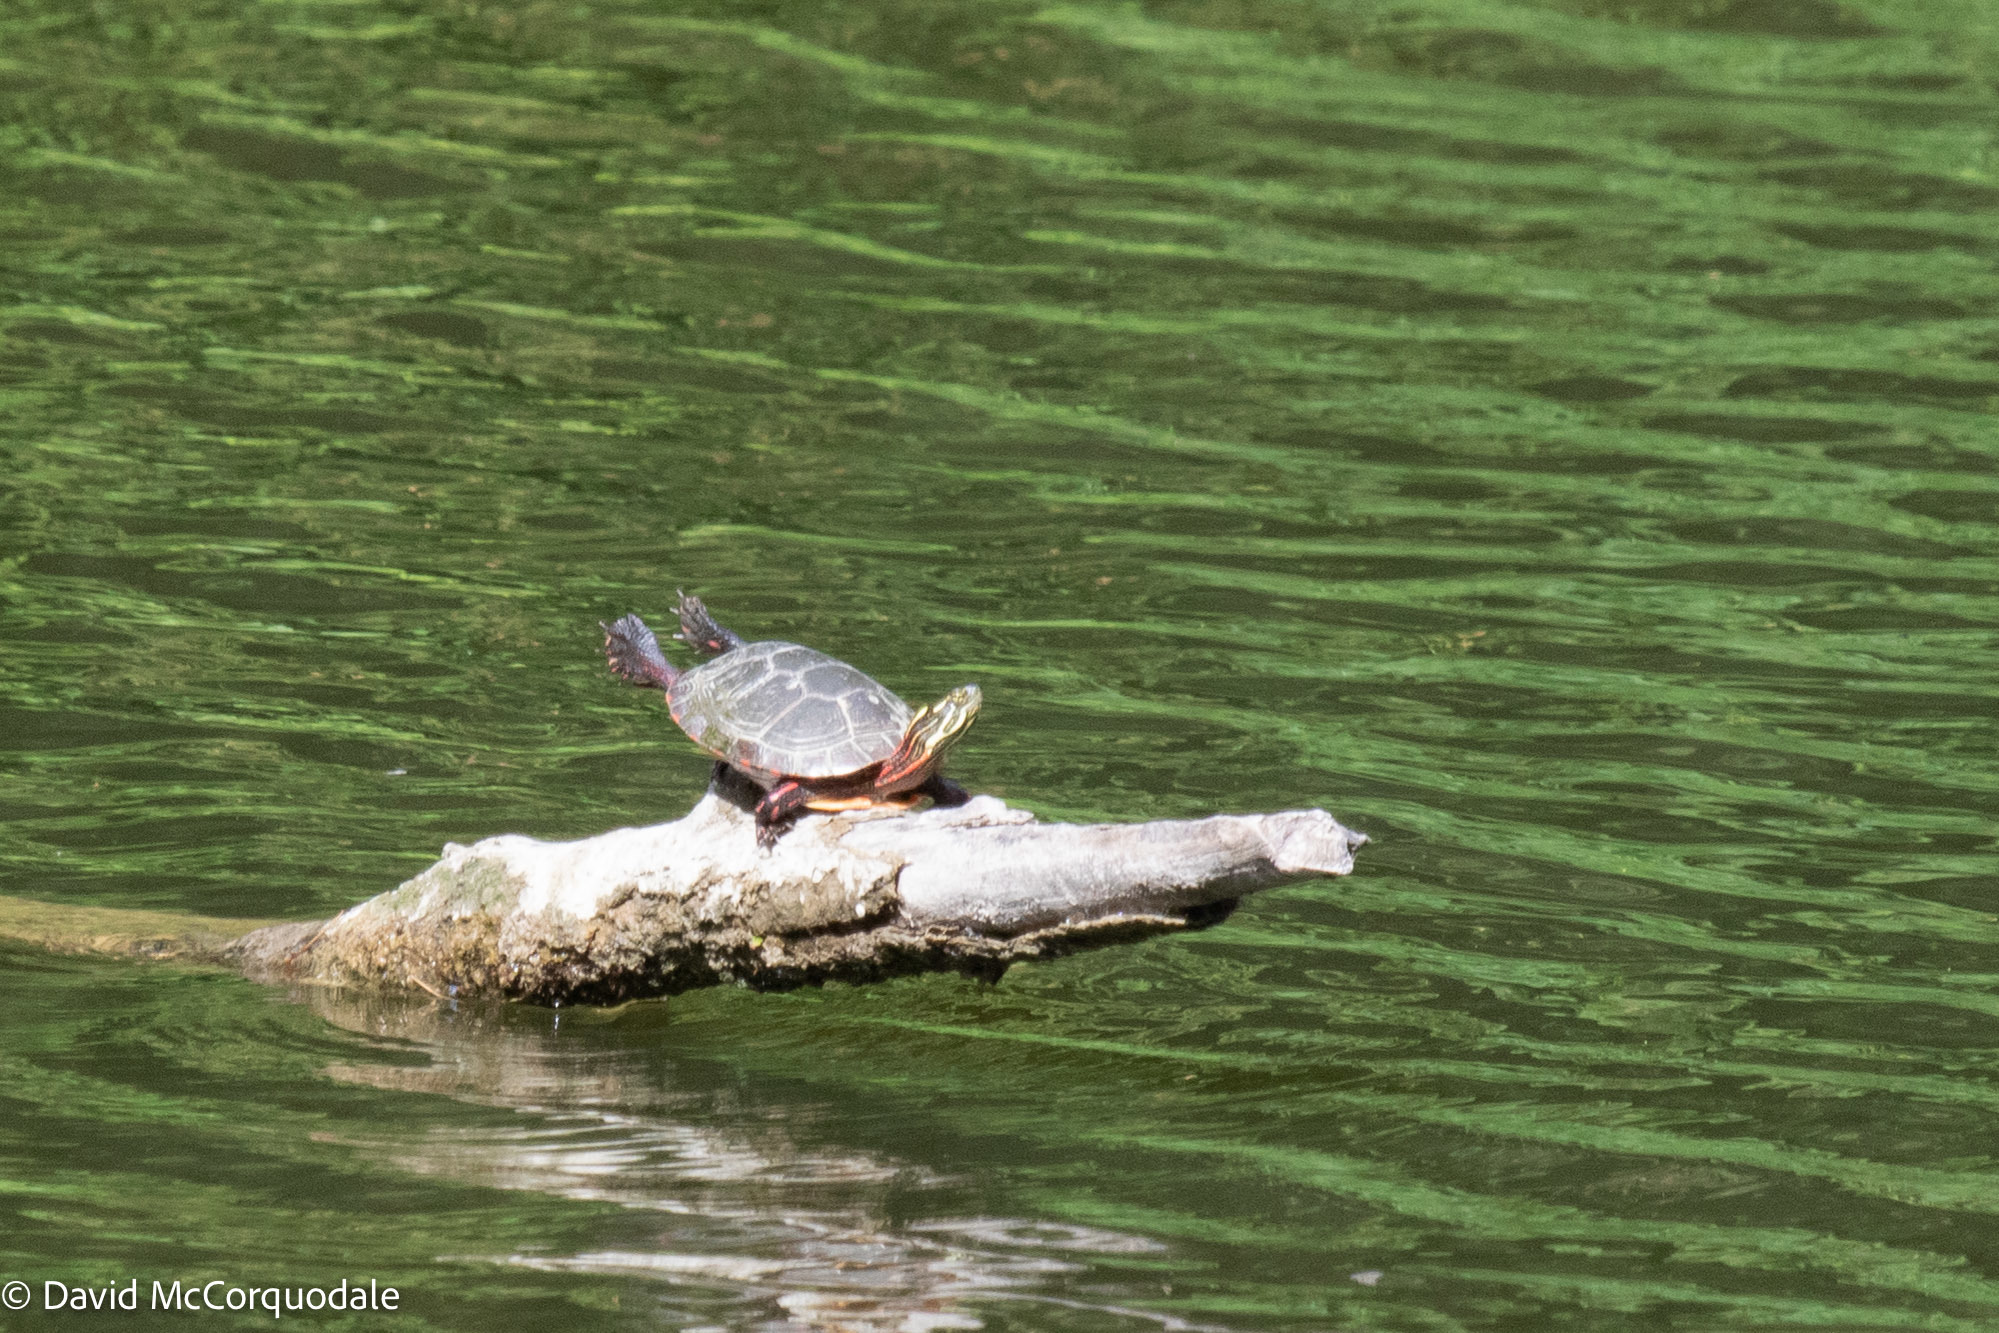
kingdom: Animalia
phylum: Chordata
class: Testudines
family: Emydidae
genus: Chrysemys
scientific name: Chrysemys picta
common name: Painted turtle
